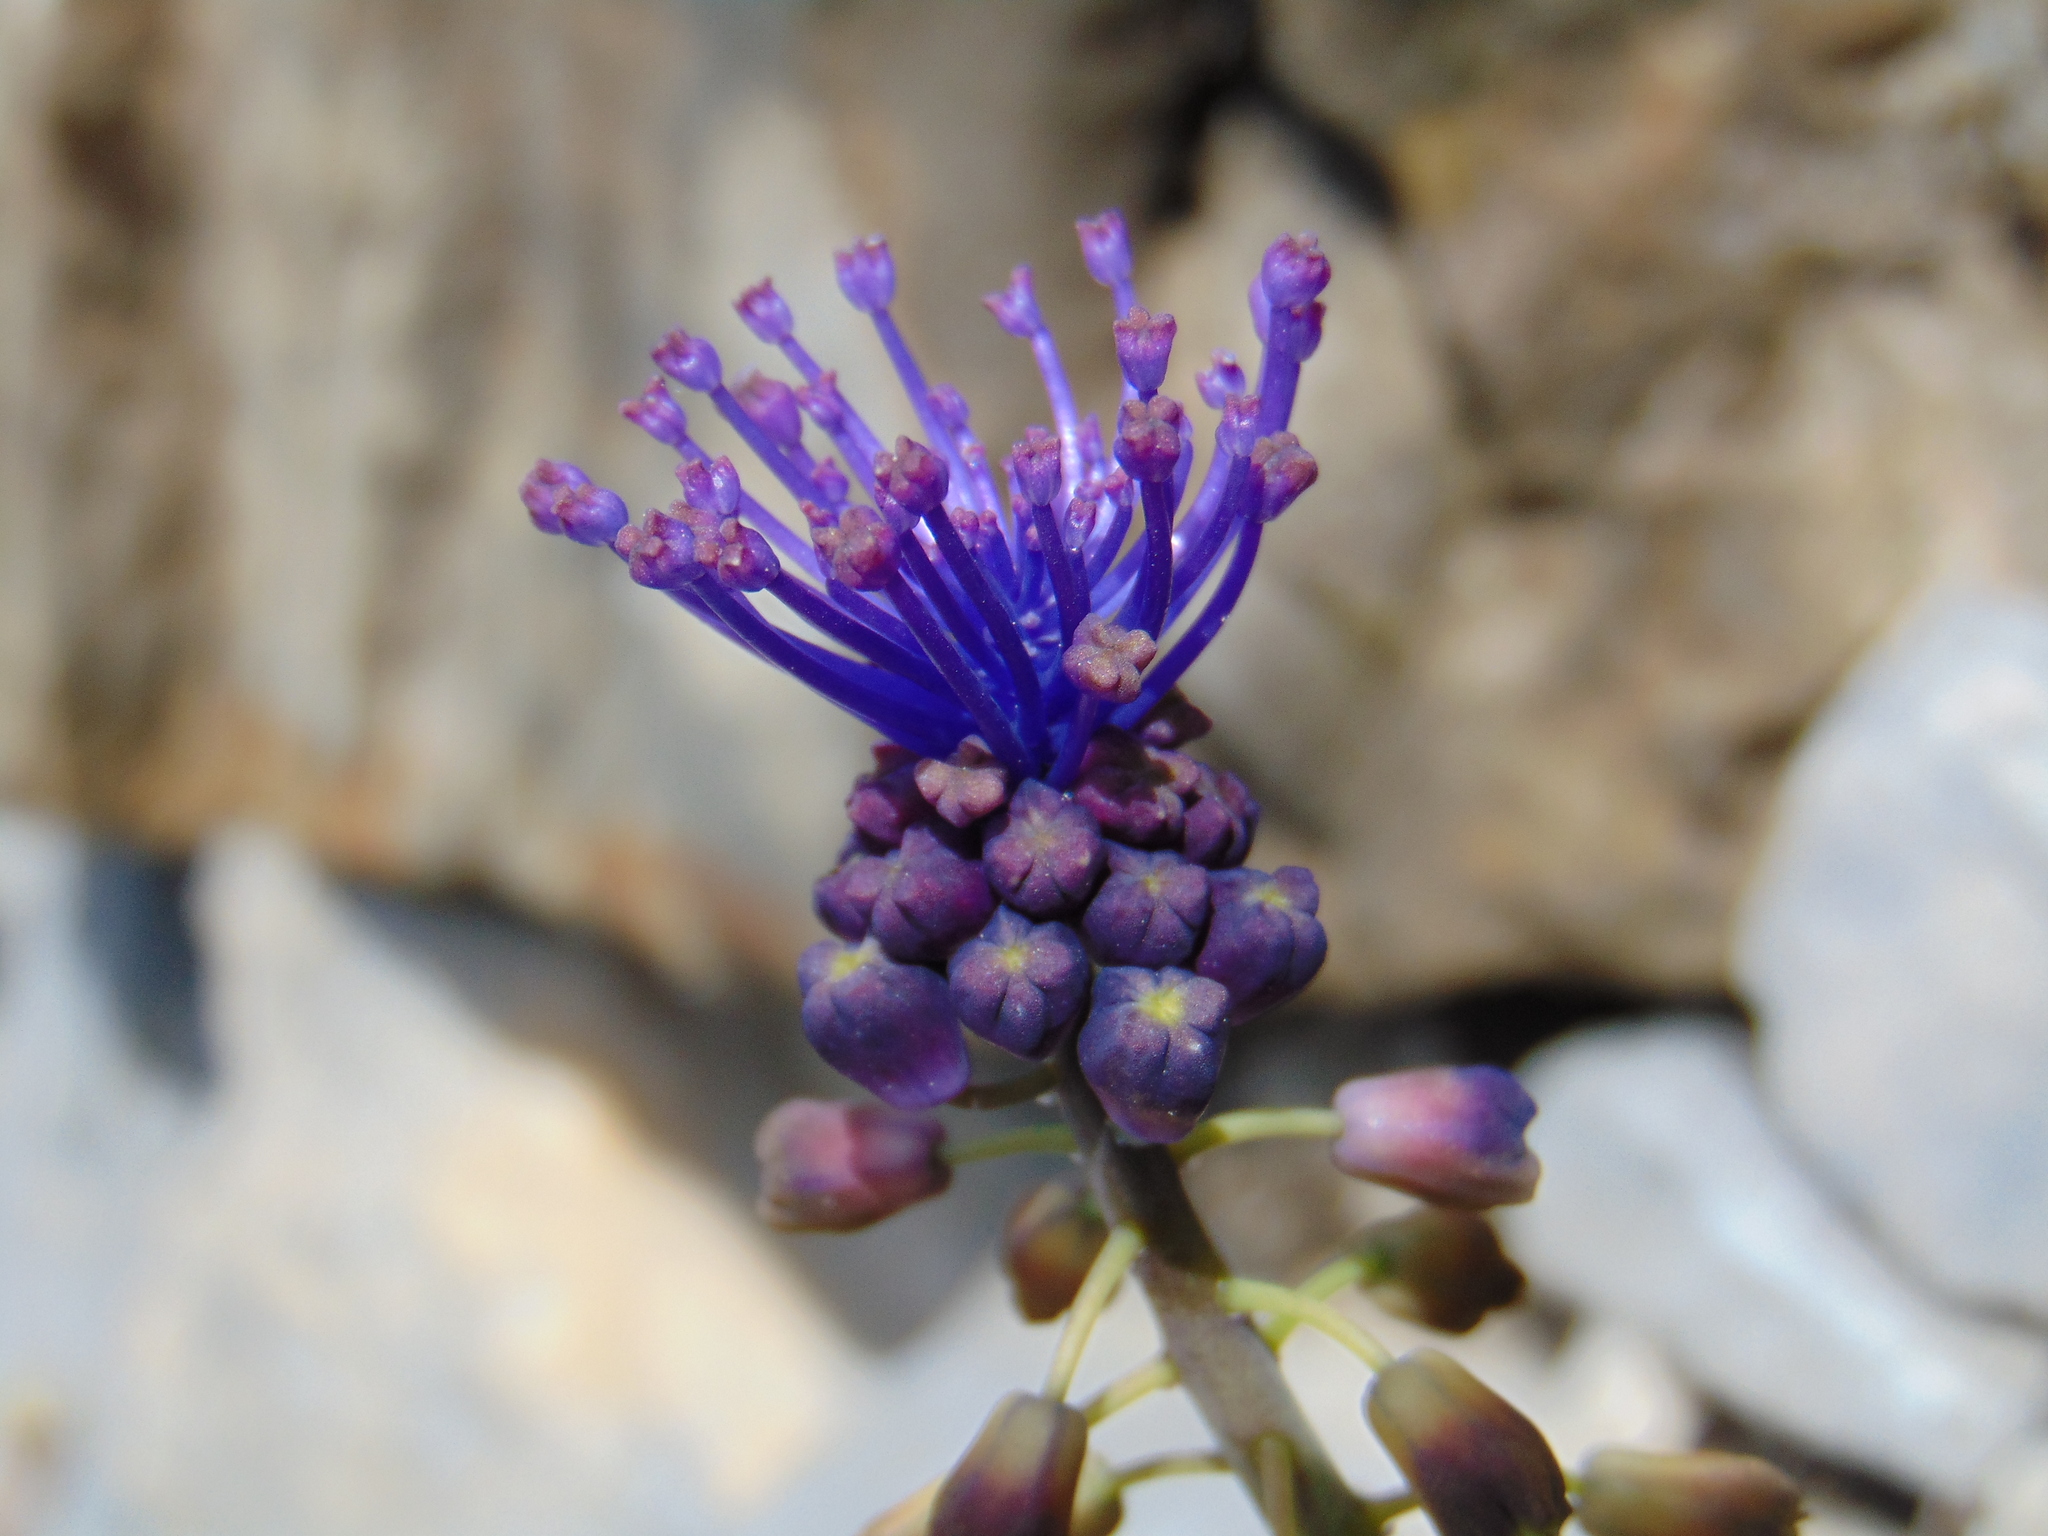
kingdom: Plantae
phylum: Tracheophyta
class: Liliopsida
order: Asparagales
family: Asparagaceae
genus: Muscari
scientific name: Muscari comosum
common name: Tassel hyacinth
